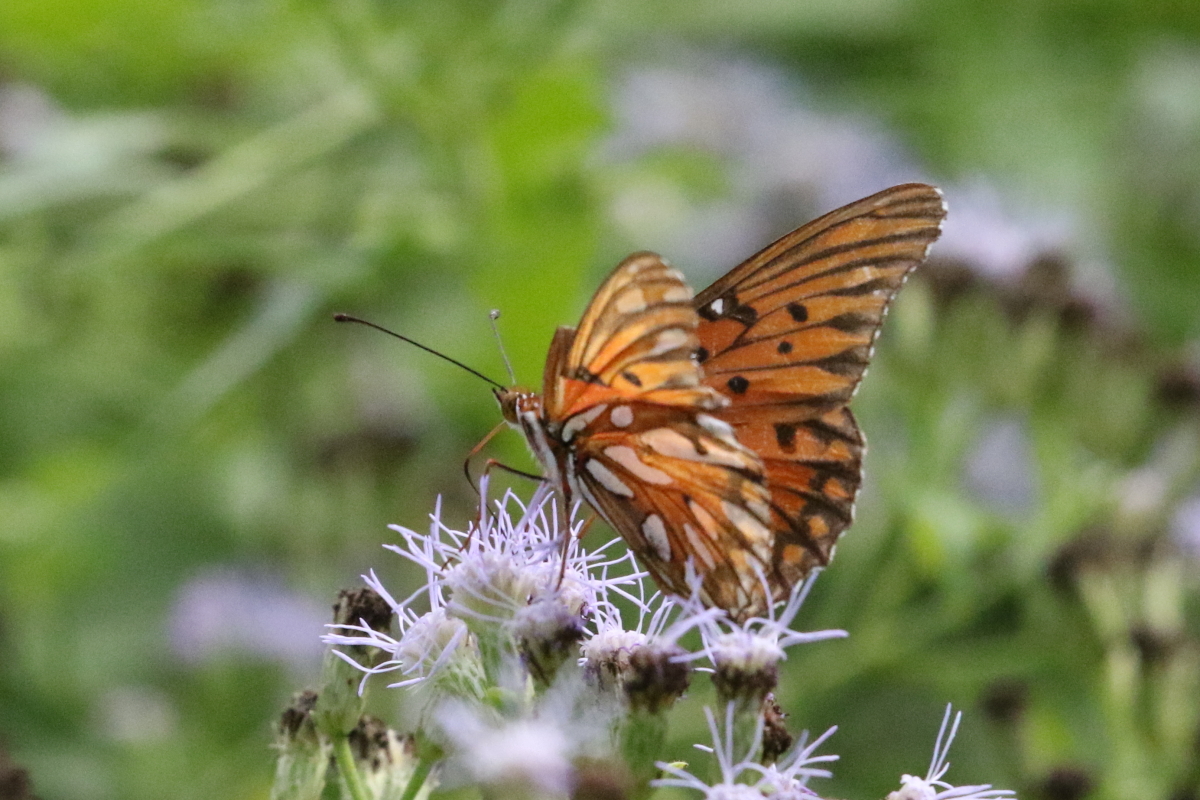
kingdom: Animalia
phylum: Arthropoda
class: Insecta
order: Lepidoptera
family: Nymphalidae
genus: Dione
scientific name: Dione vanillae
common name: Gulf fritillary
